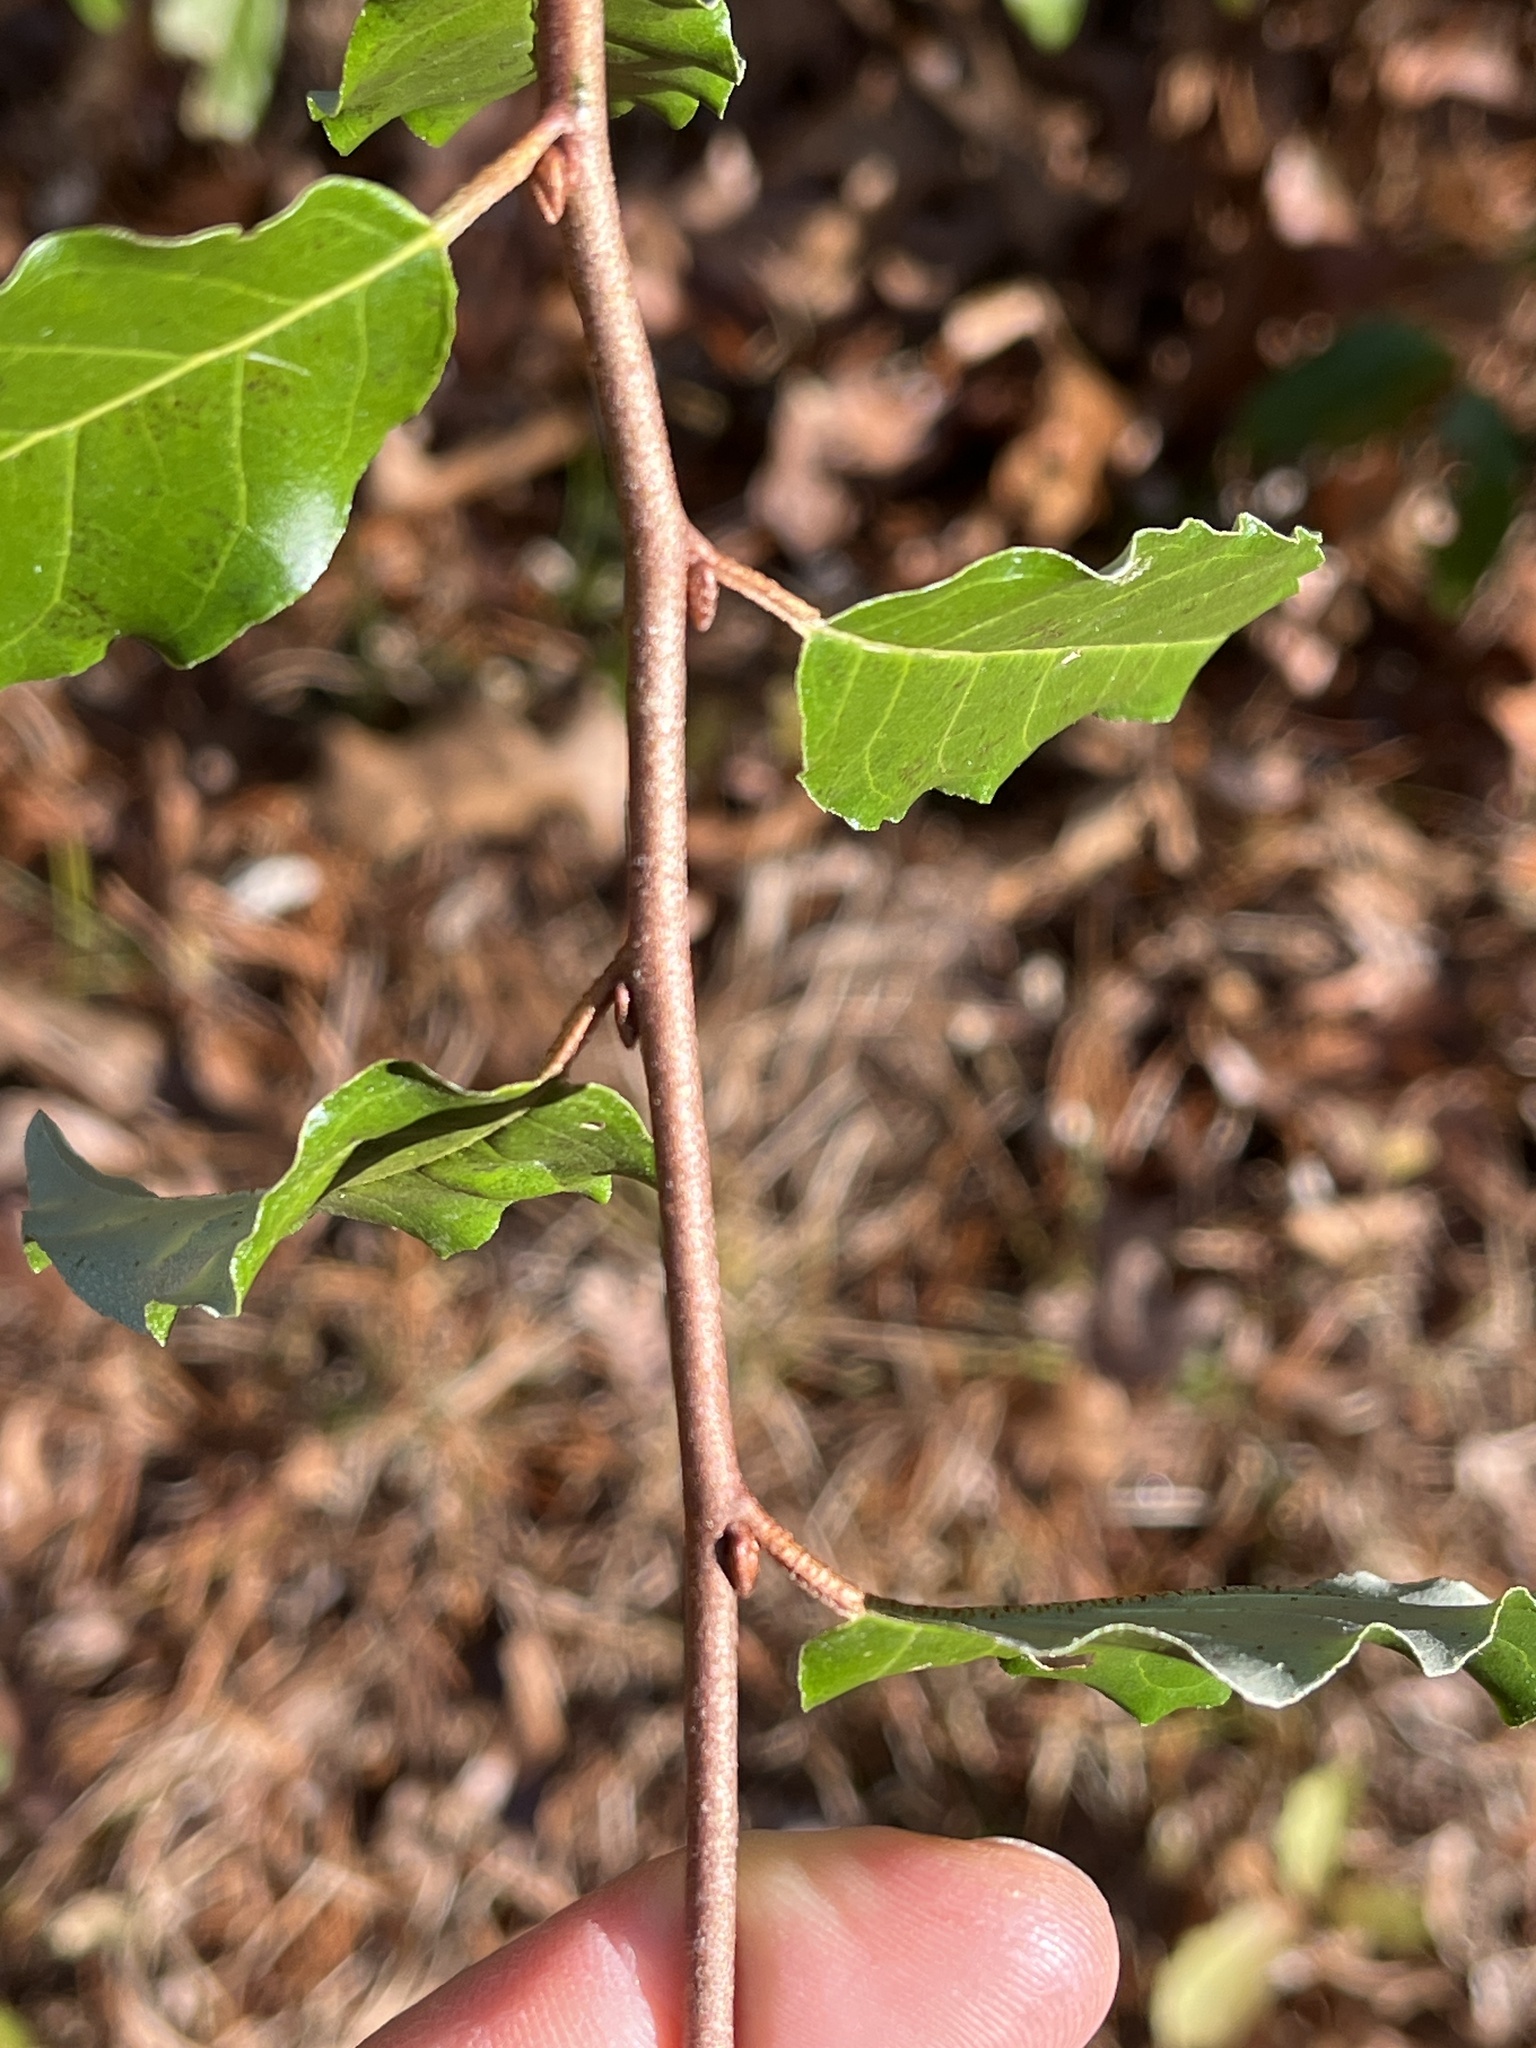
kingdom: Plantae
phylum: Tracheophyta
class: Magnoliopsida
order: Rosales
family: Elaeagnaceae
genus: Elaeagnus
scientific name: Elaeagnus umbellata
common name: Autumn olive
